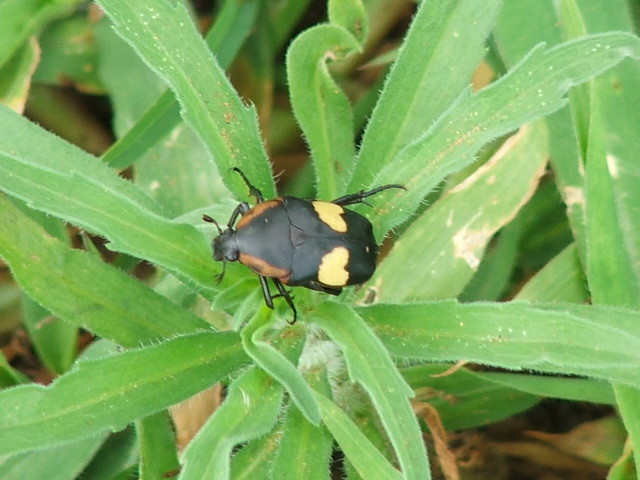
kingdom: Animalia
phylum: Arthropoda
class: Insecta
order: Coleoptera
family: Scarabaeidae
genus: Pedinorrhina
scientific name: Pedinorrhina
